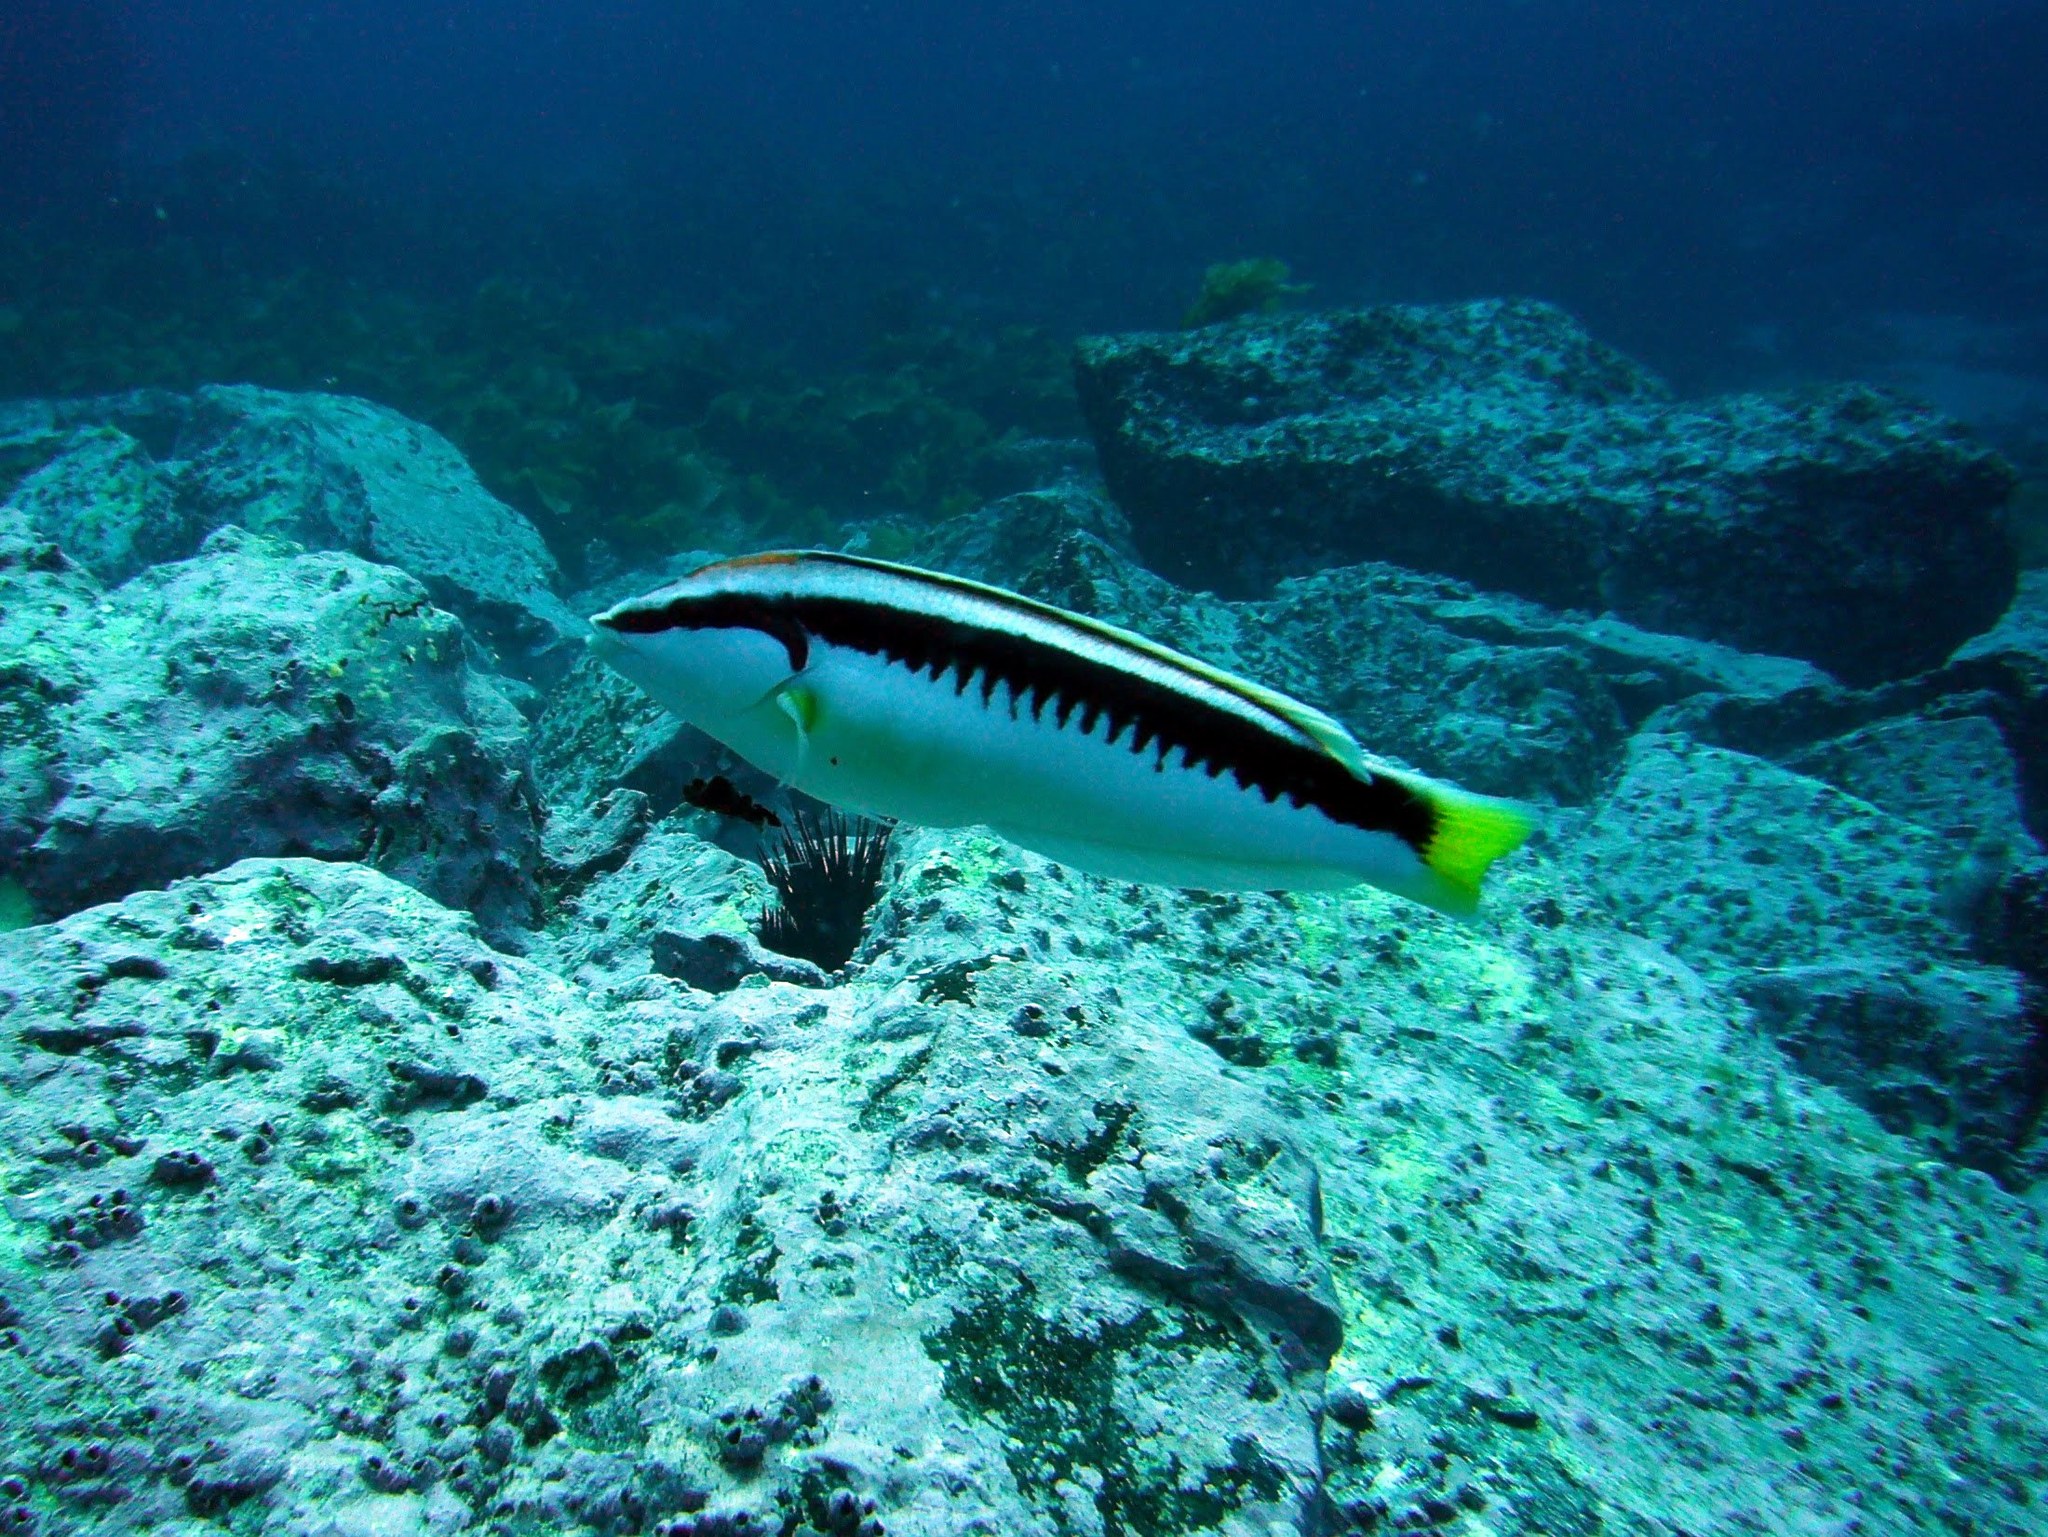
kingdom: Animalia
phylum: Chordata
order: Perciformes
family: Labridae
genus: Coris
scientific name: Coris picta
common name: Combfish
